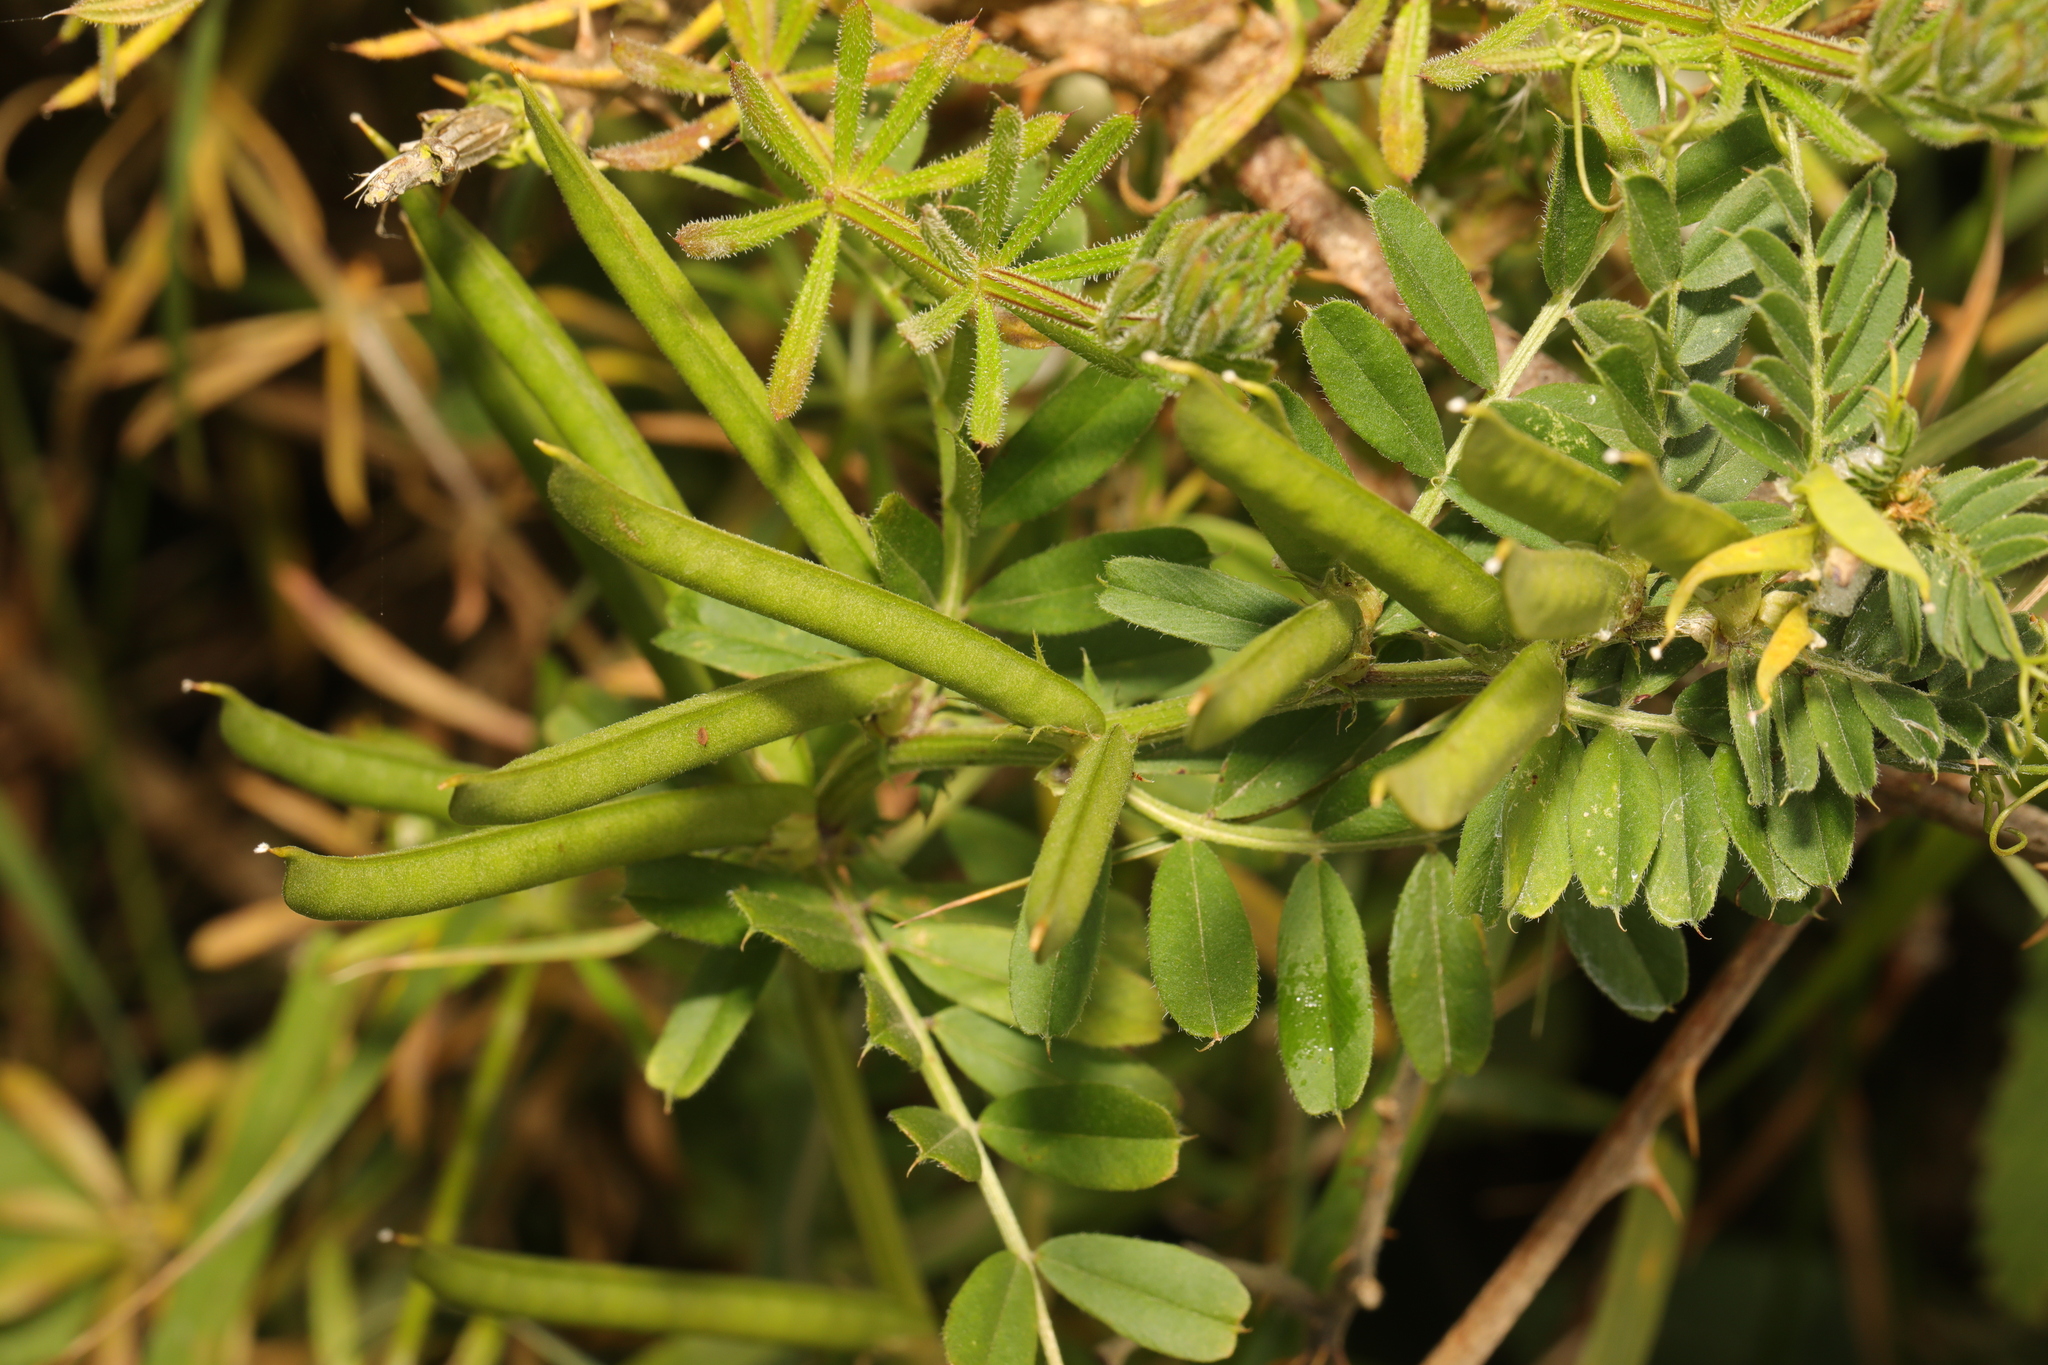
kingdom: Plantae
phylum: Tracheophyta
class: Magnoliopsida
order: Fabales
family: Fabaceae
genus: Vicia
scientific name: Vicia sativa
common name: Garden vetch
